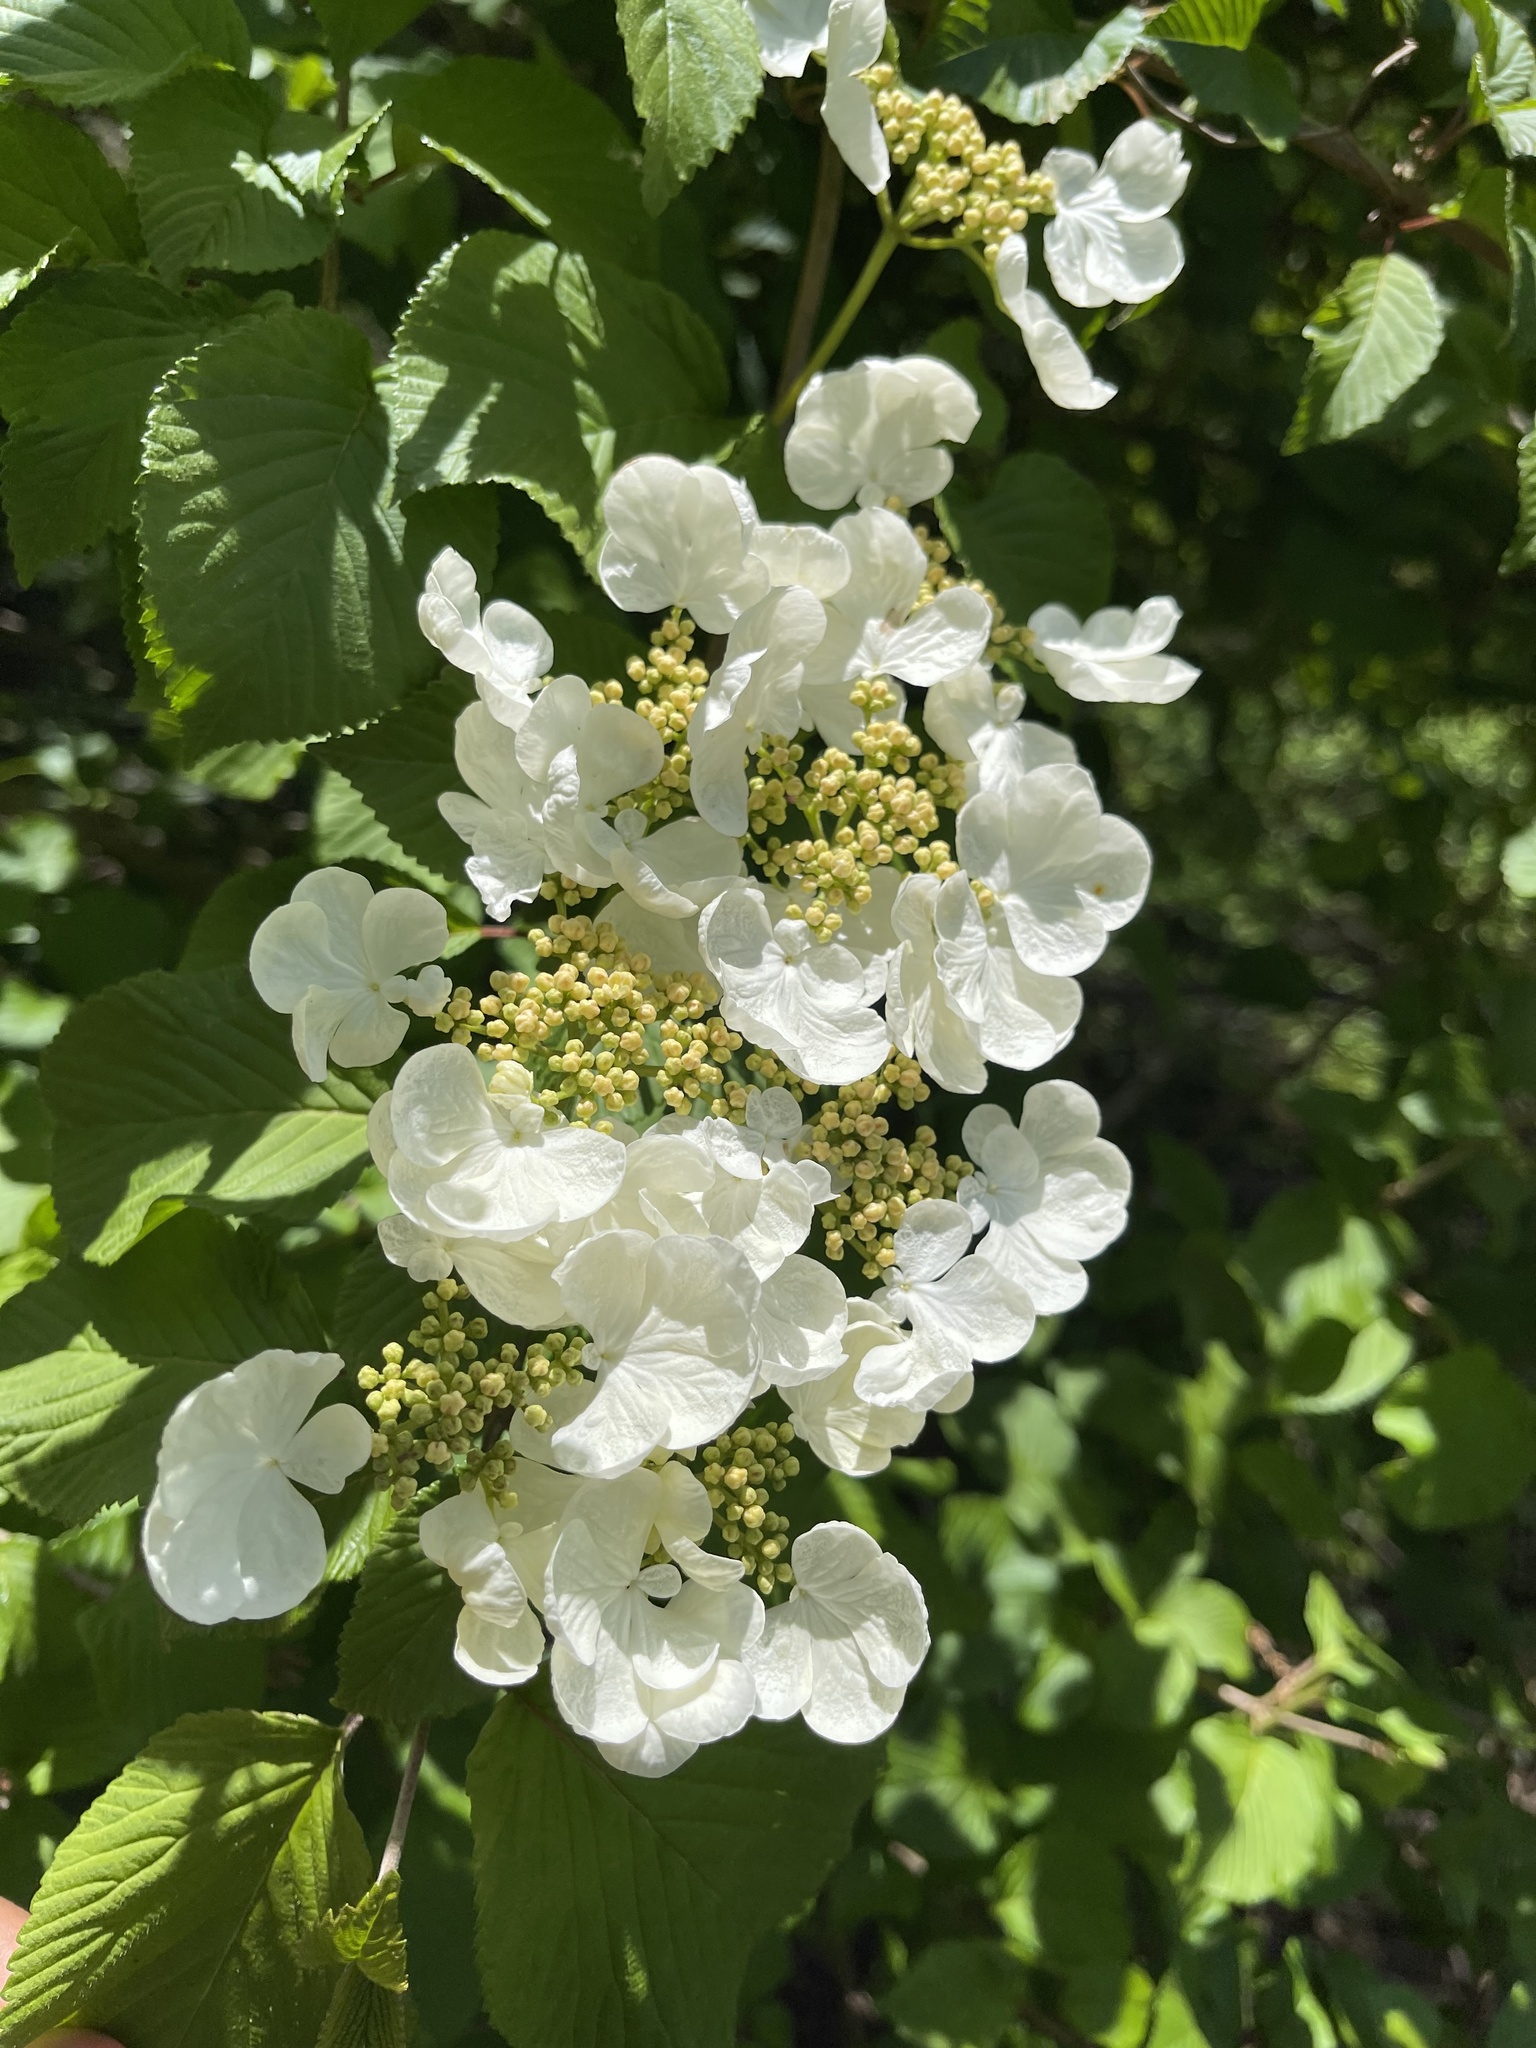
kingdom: Plantae
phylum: Tracheophyta
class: Magnoliopsida
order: Dipsacales
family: Viburnaceae
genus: Viburnum
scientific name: Viburnum plicatum
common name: Japanese snowball
